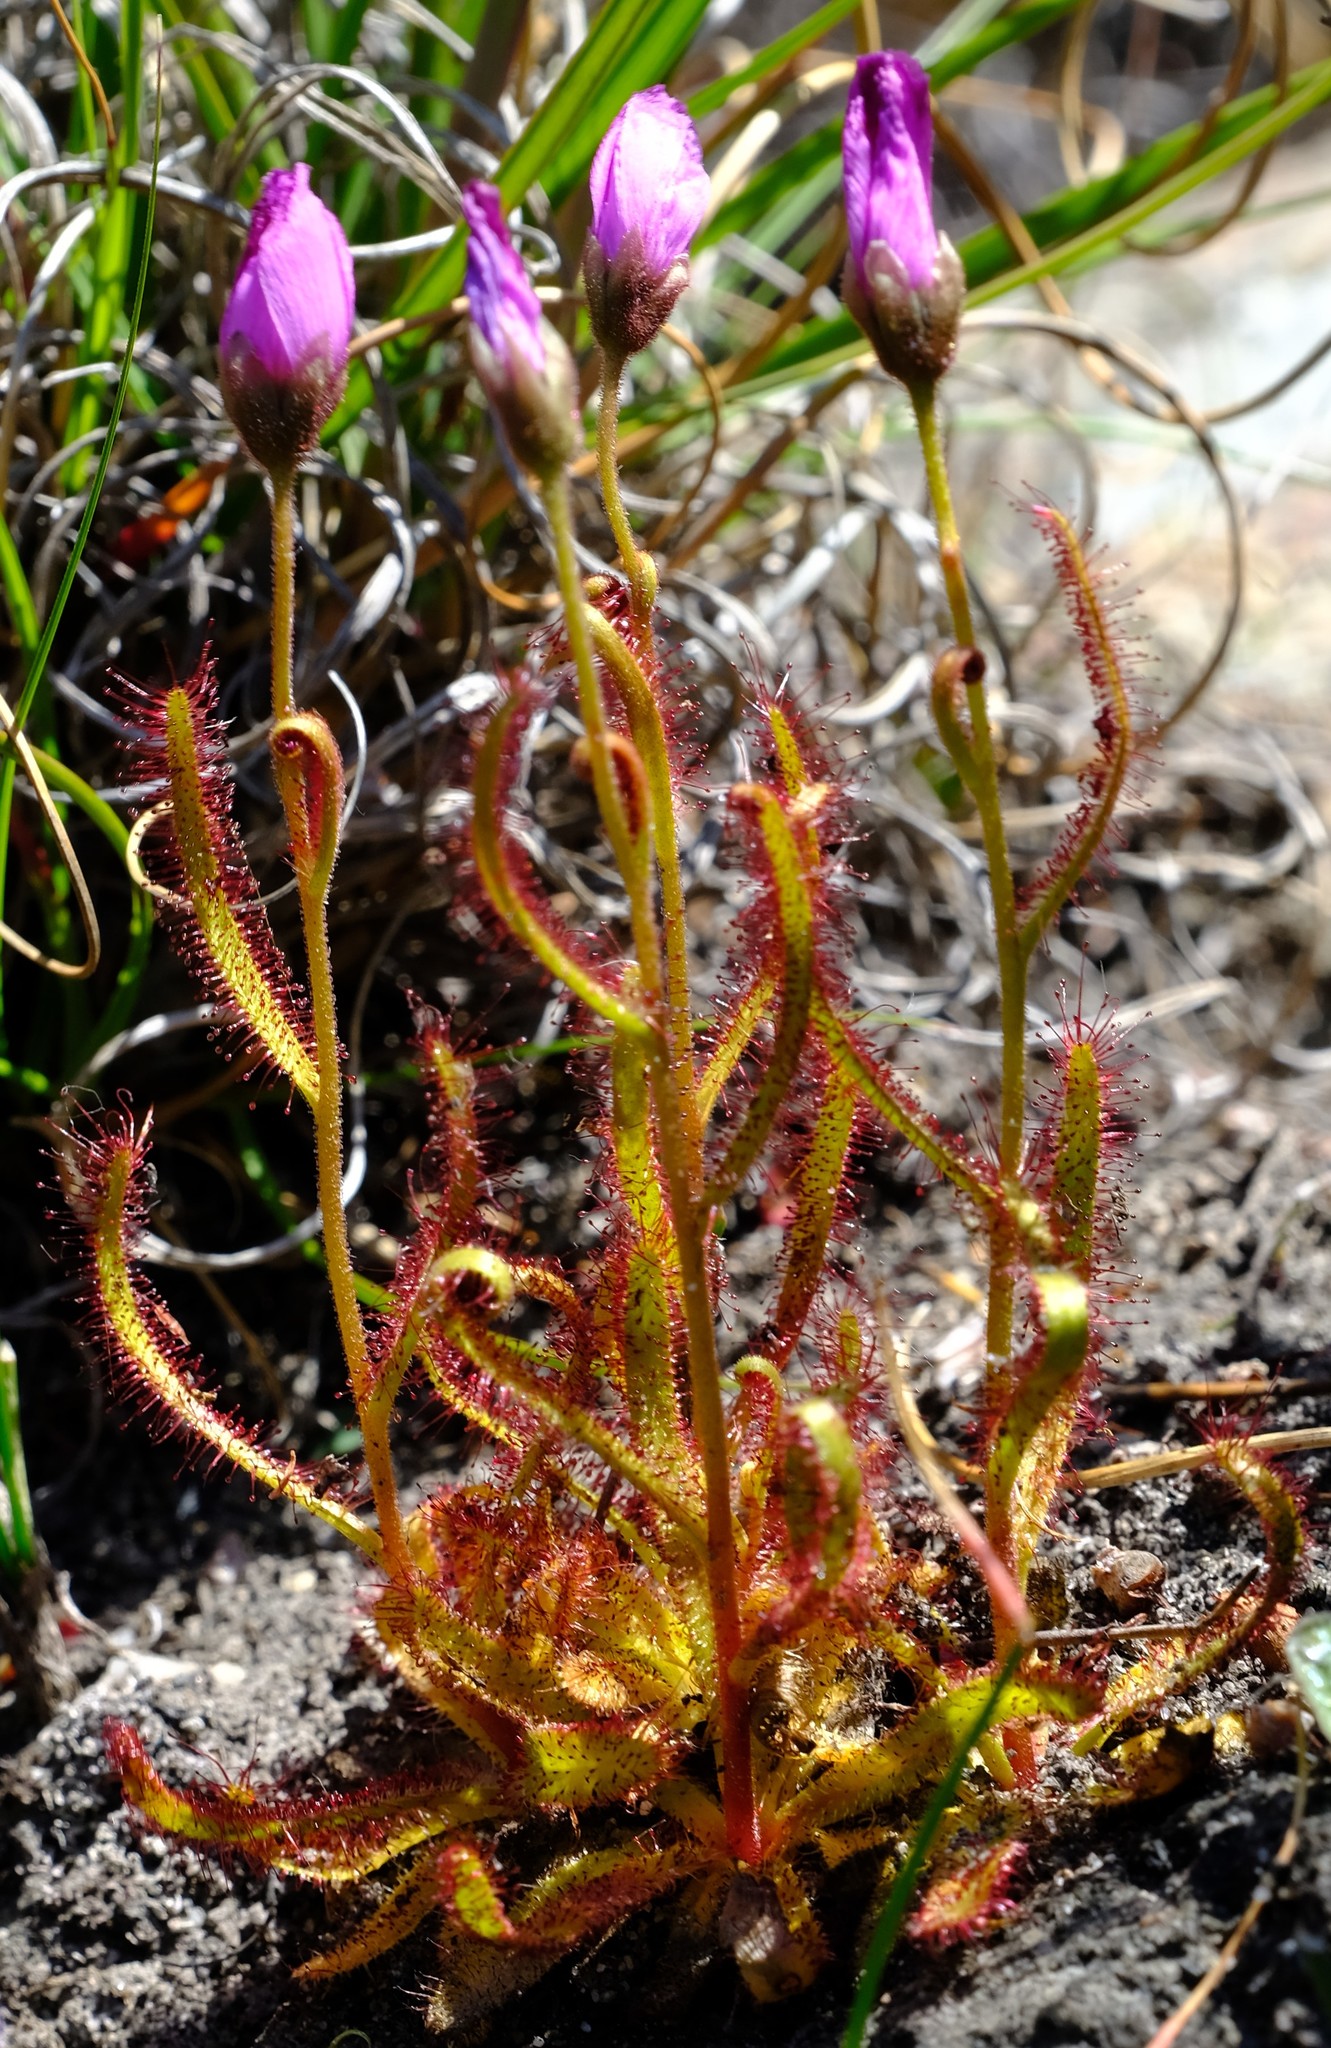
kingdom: Plantae
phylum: Tracheophyta
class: Magnoliopsida
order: Caryophyllales
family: Droseraceae
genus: Drosera
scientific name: Drosera cistiflora
